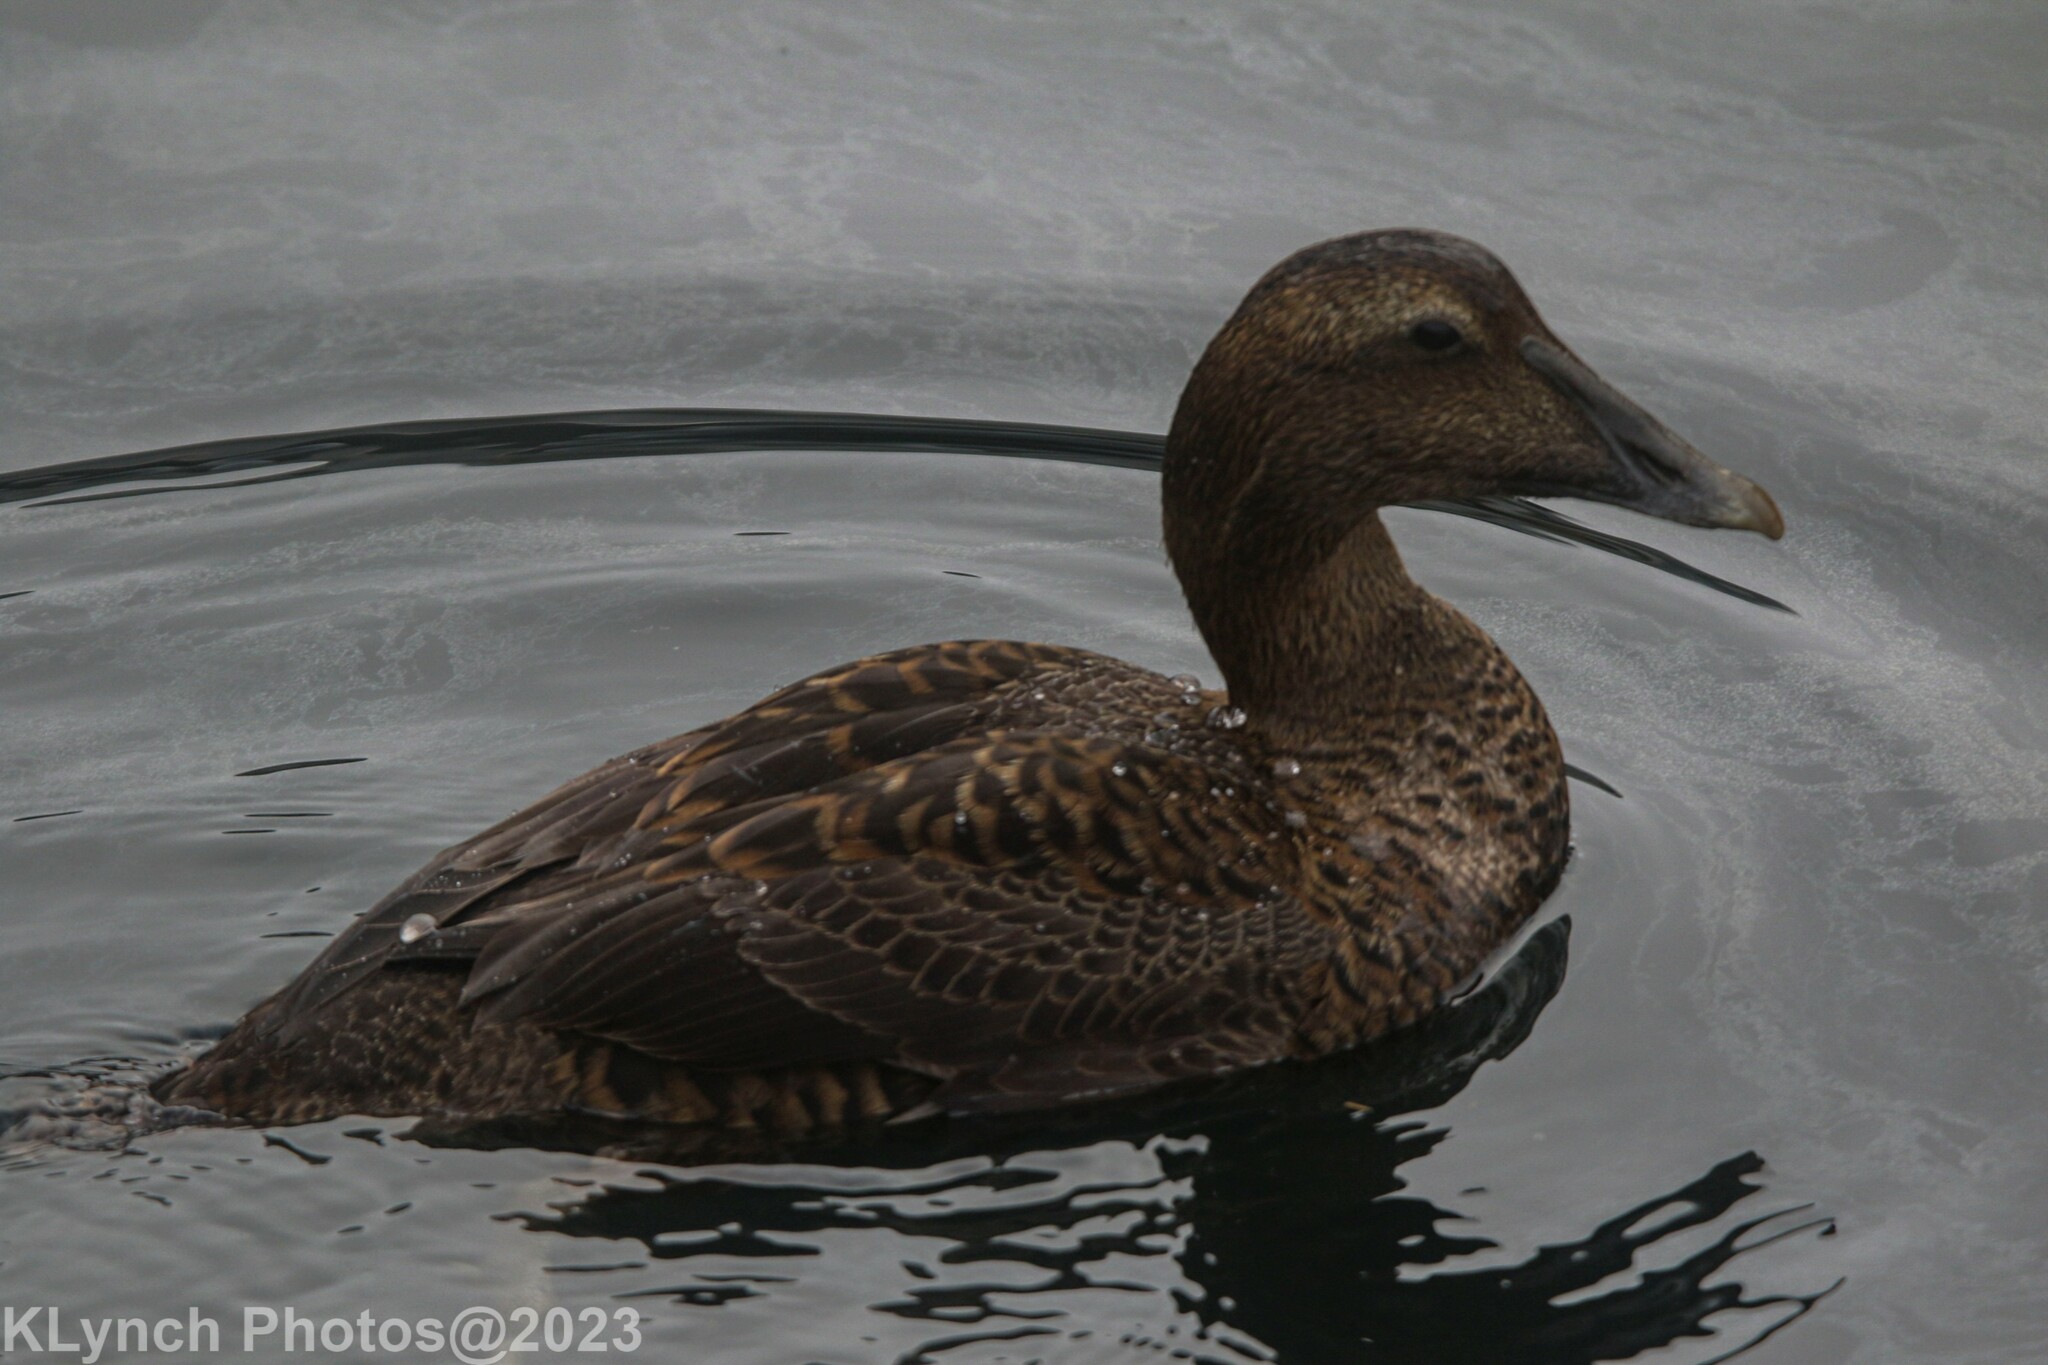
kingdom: Animalia
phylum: Chordata
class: Aves
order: Anseriformes
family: Anatidae
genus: Somateria
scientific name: Somateria mollissima
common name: Common eider
